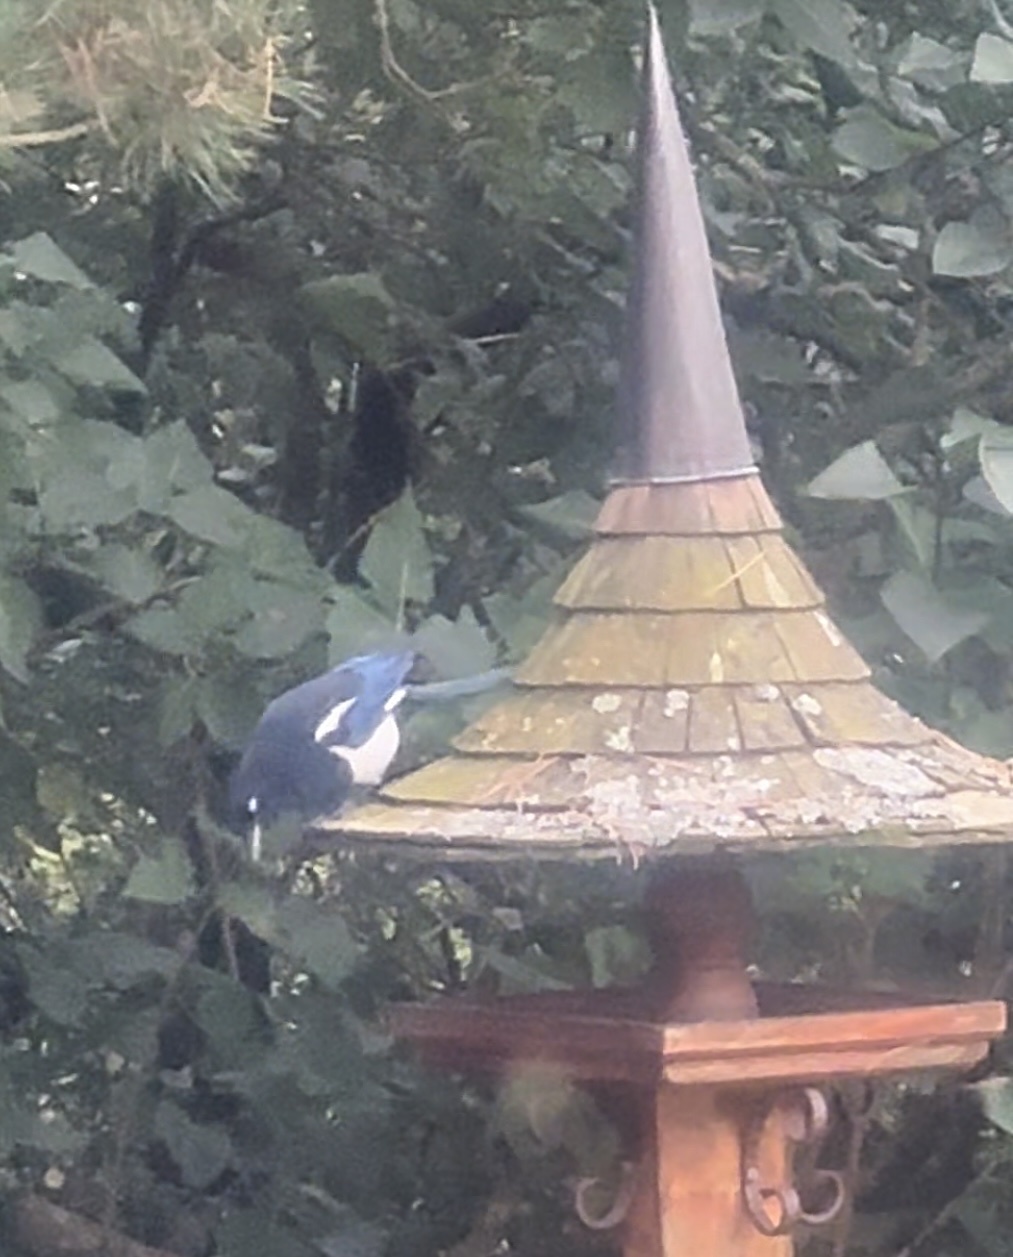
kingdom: Animalia
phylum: Chordata
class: Aves
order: Passeriformes
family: Corvidae
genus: Pica
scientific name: Pica pica
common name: Eurasian magpie
